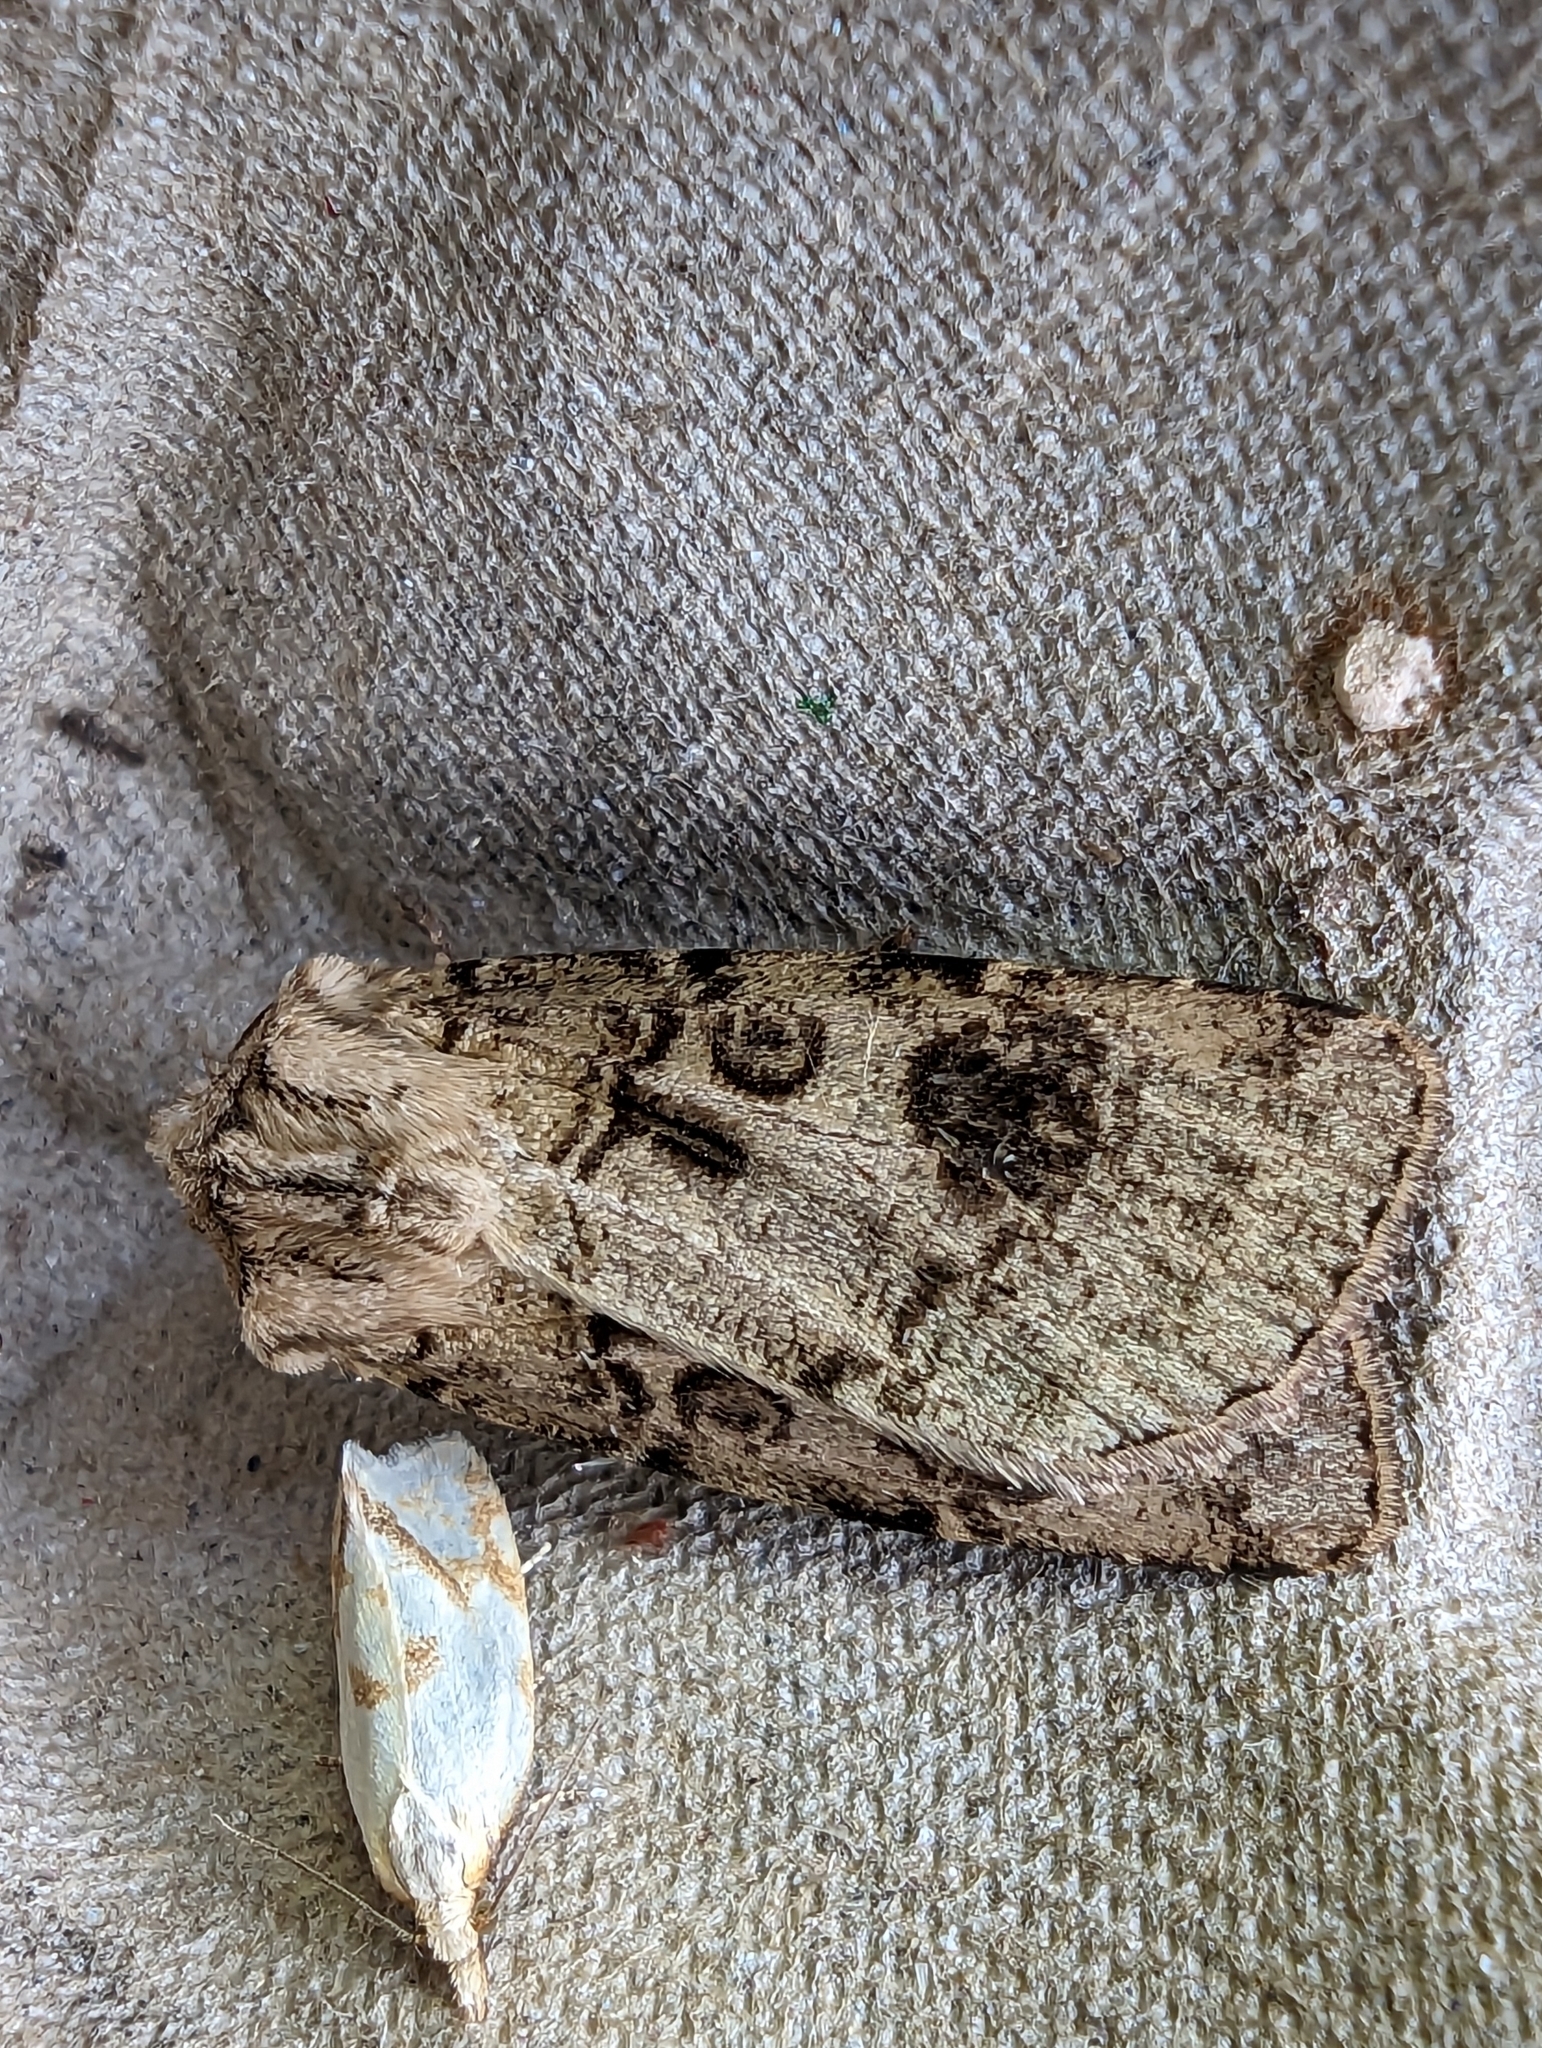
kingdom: Animalia
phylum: Arthropoda
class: Insecta
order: Lepidoptera
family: Noctuidae
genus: Agrotis
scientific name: Agrotis clavis
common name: Heart and club
